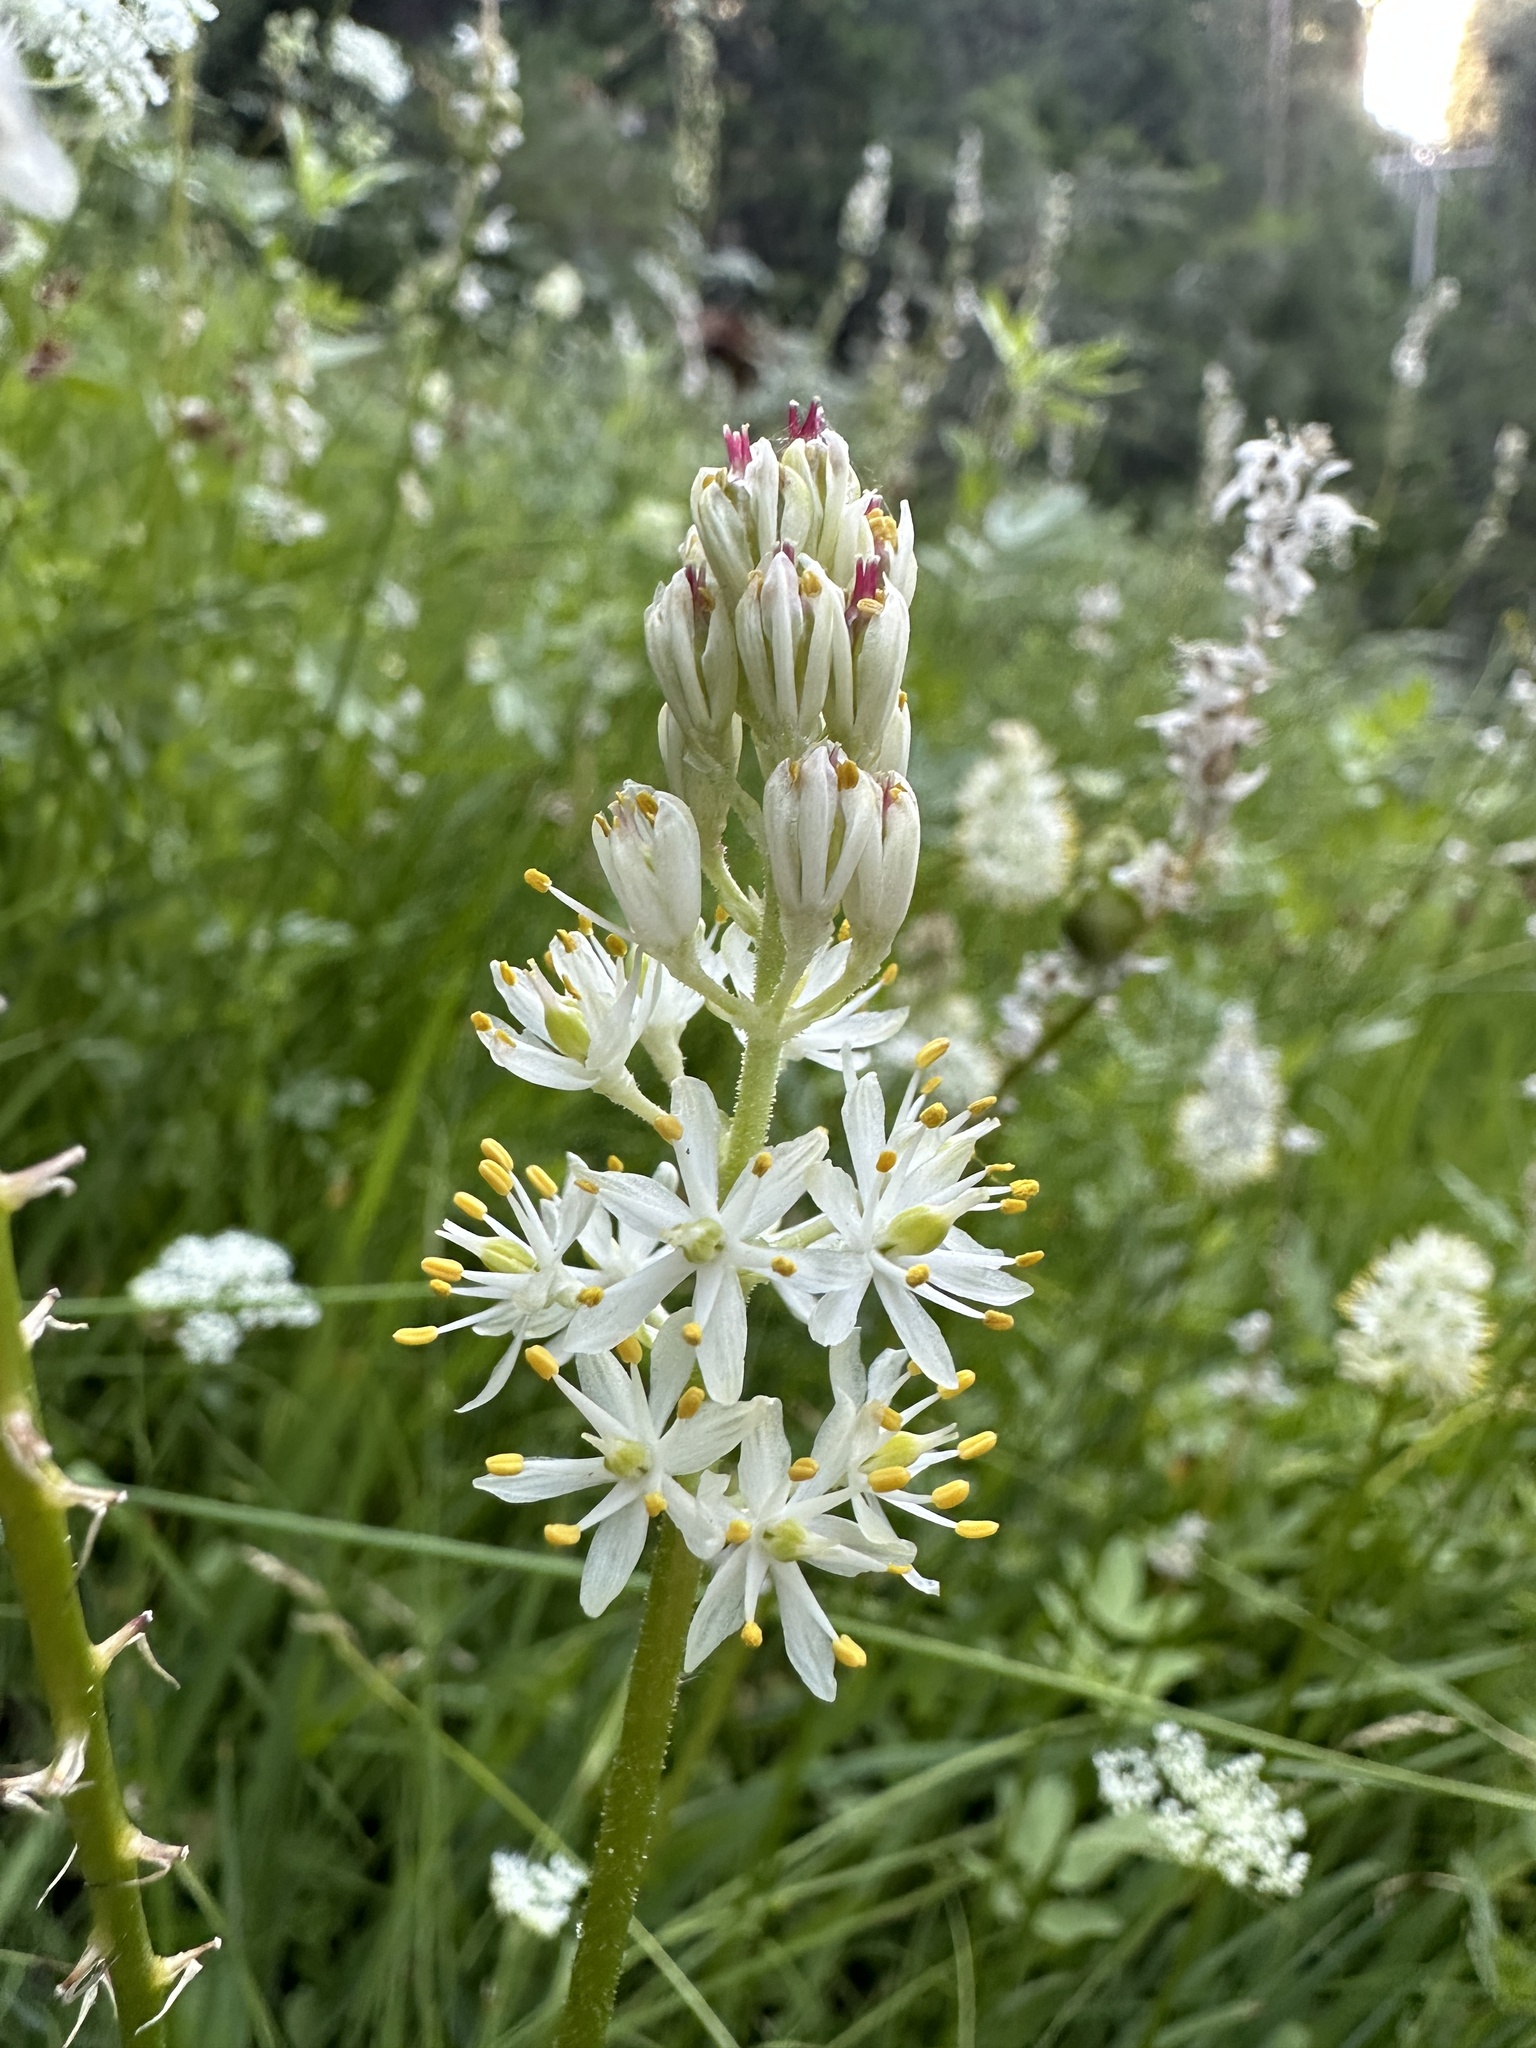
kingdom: Plantae
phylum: Tracheophyta
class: Liliopsida
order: Alismatales
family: Tofieldiaceae
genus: Triantha
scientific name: Triantha occidentalis
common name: Western false asphodel
